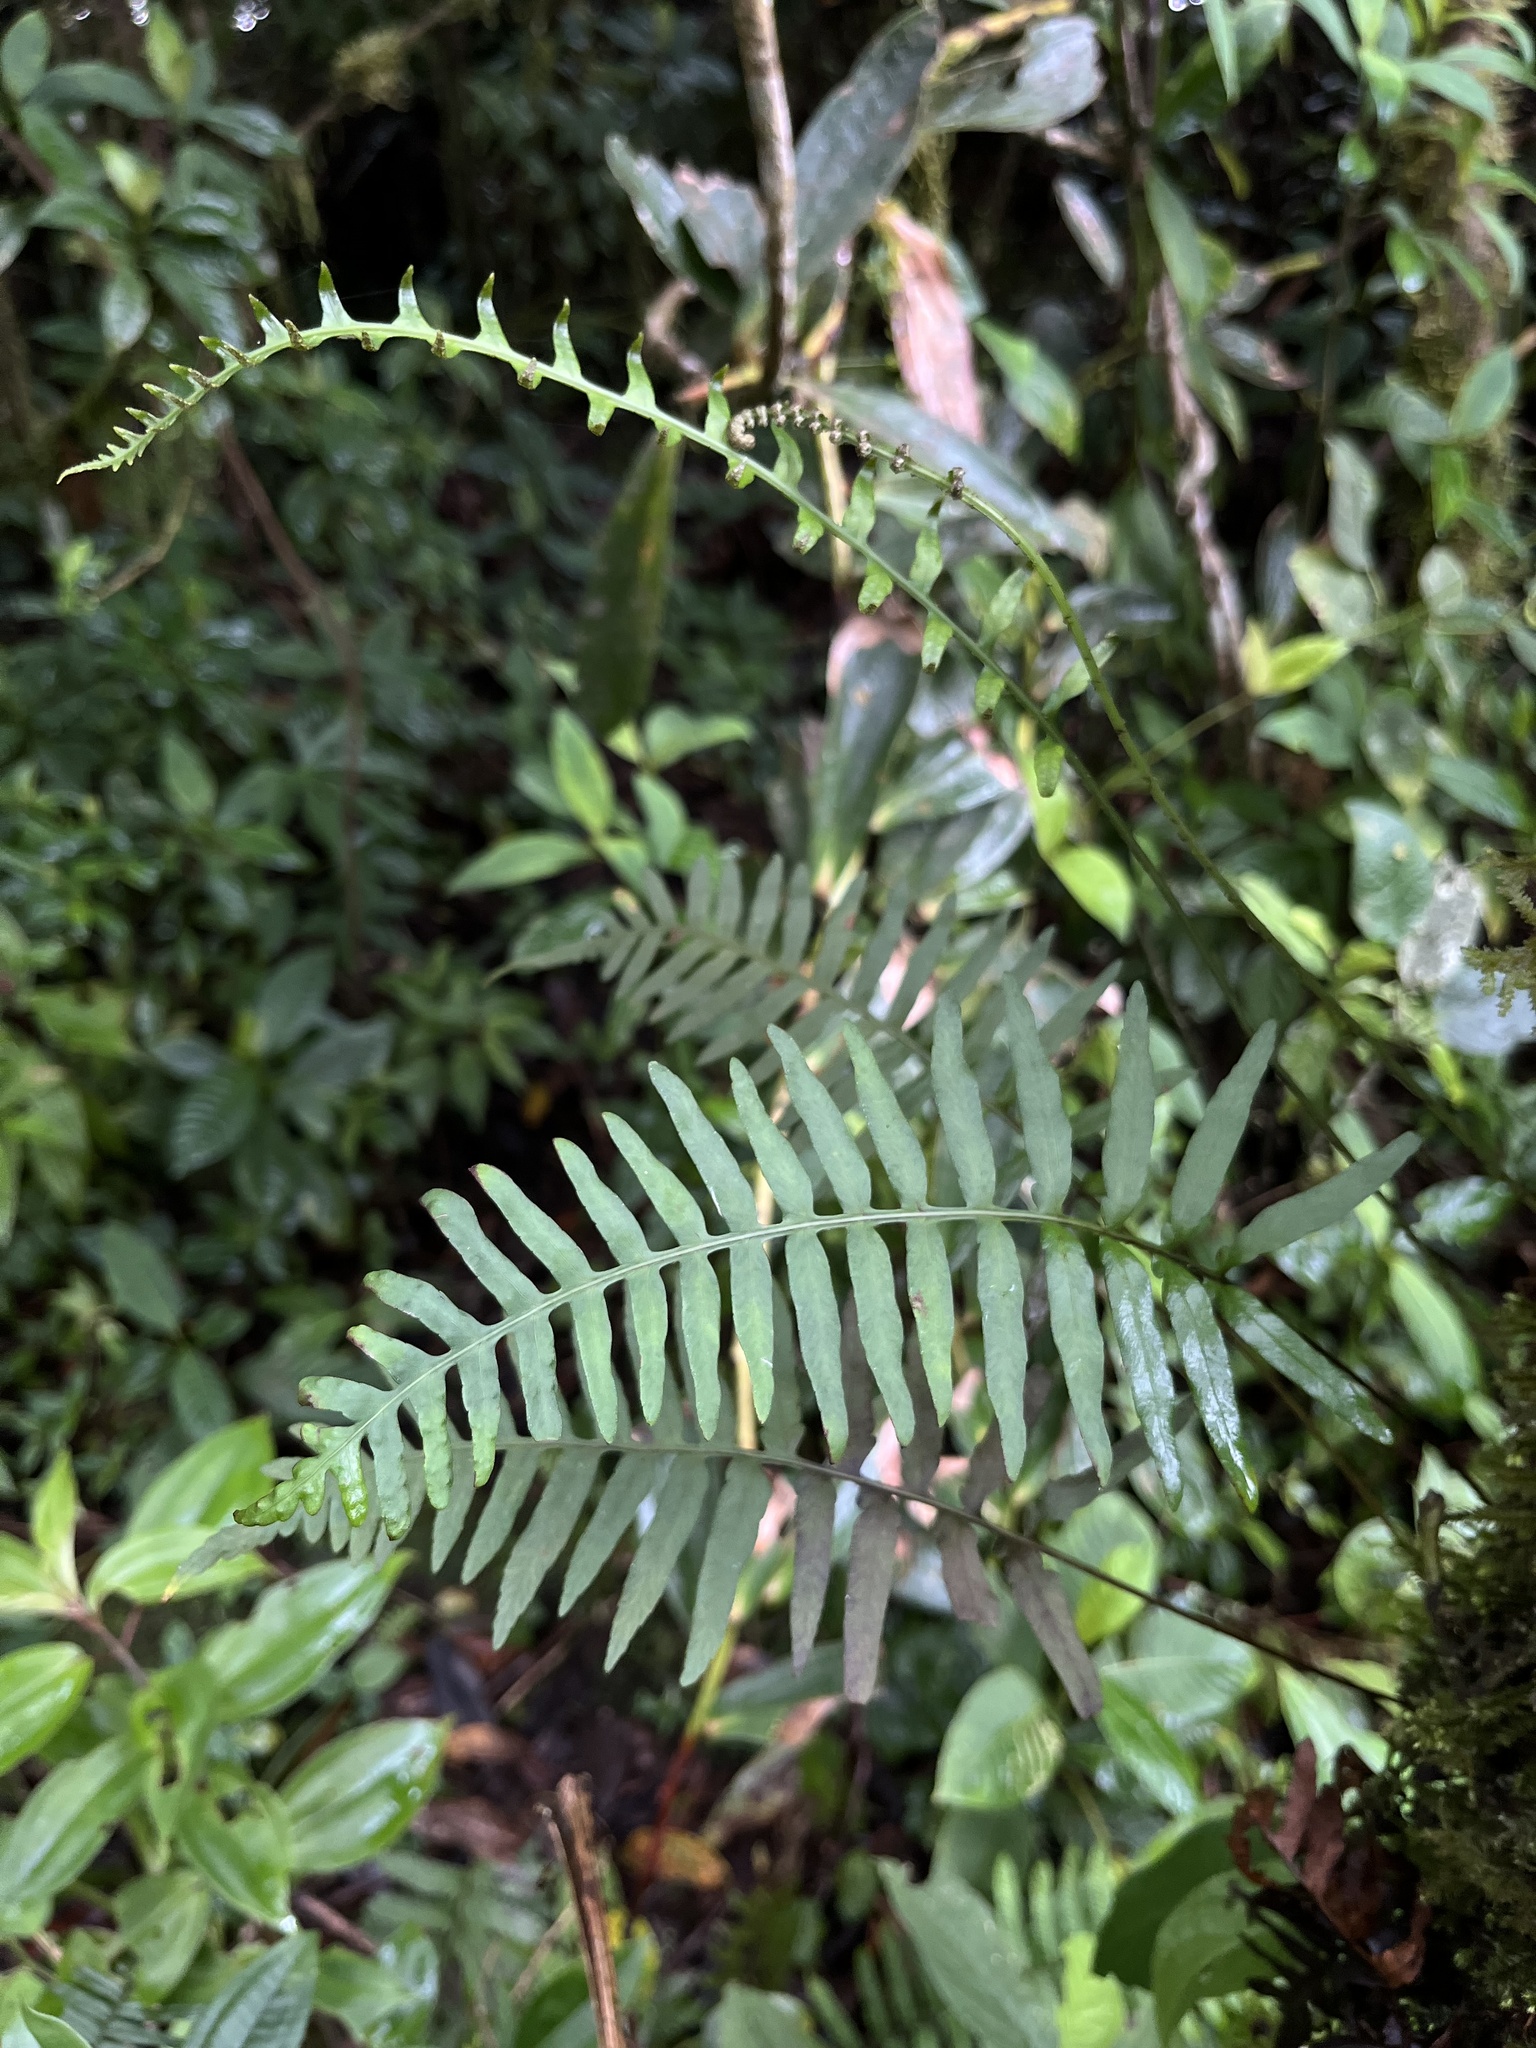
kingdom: Plantae
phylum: Tracheophyta
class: Polypodiopsida
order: Polypodiales
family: Polypodiaceae
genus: Pleopeltis
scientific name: Pleopeltis buchtienii
